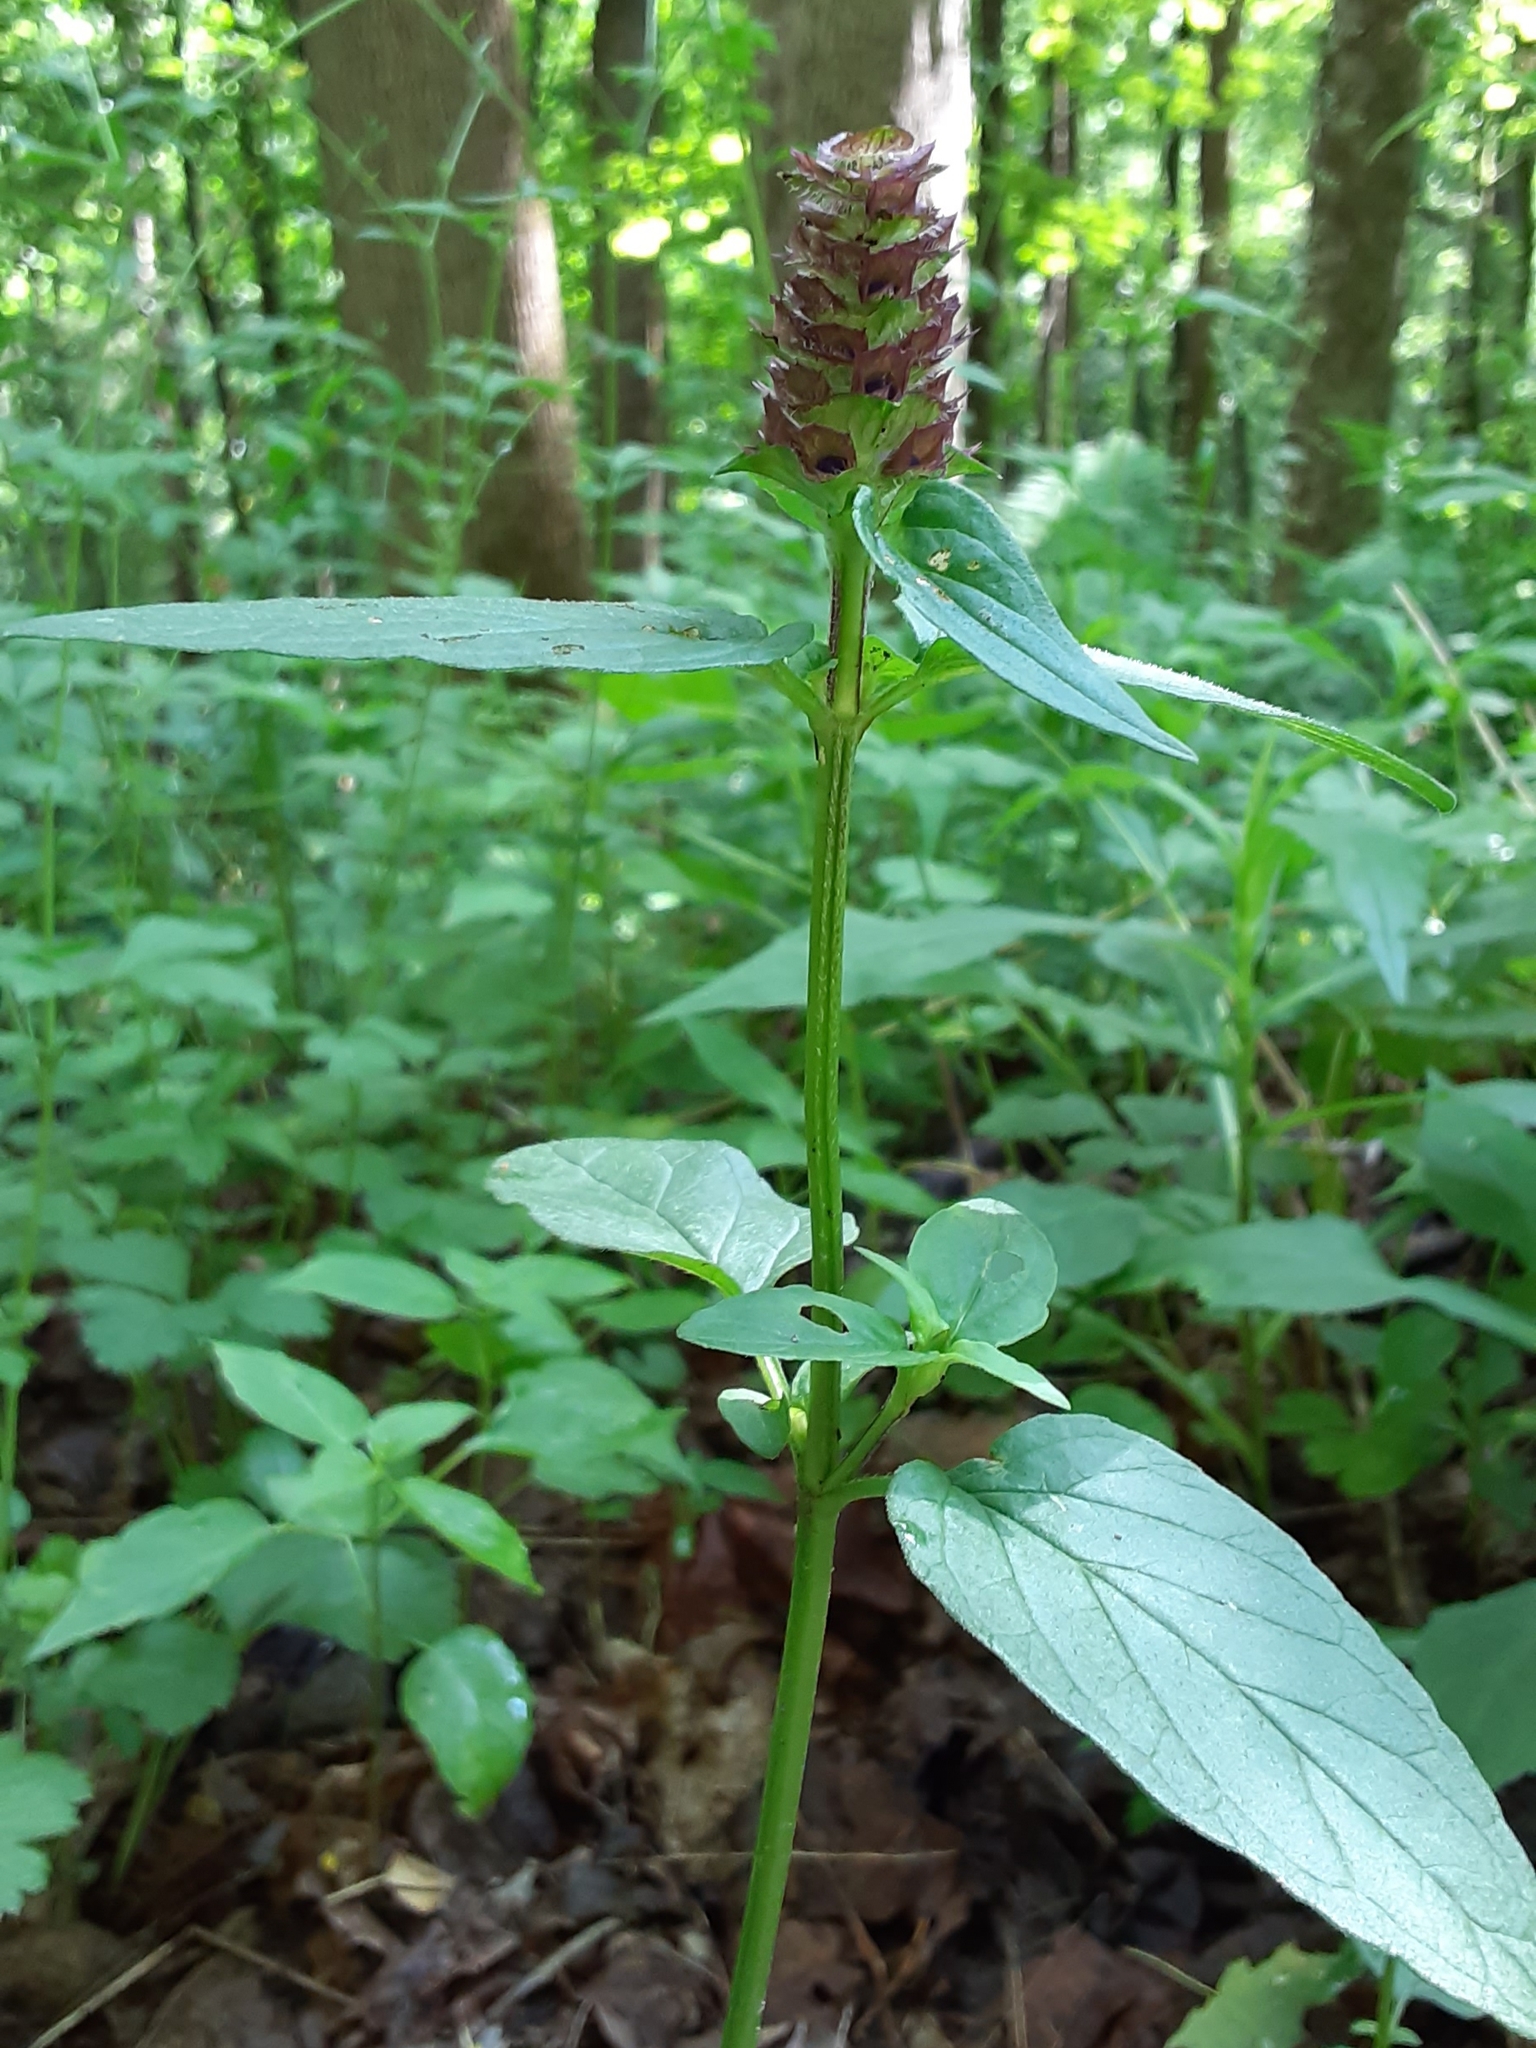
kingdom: Plantae
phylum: Tracheophyta
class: Magnoliopsida
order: Lamiales
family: Lamiaceae
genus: Prunella
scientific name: Prunella vulgaris
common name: Heal-all
